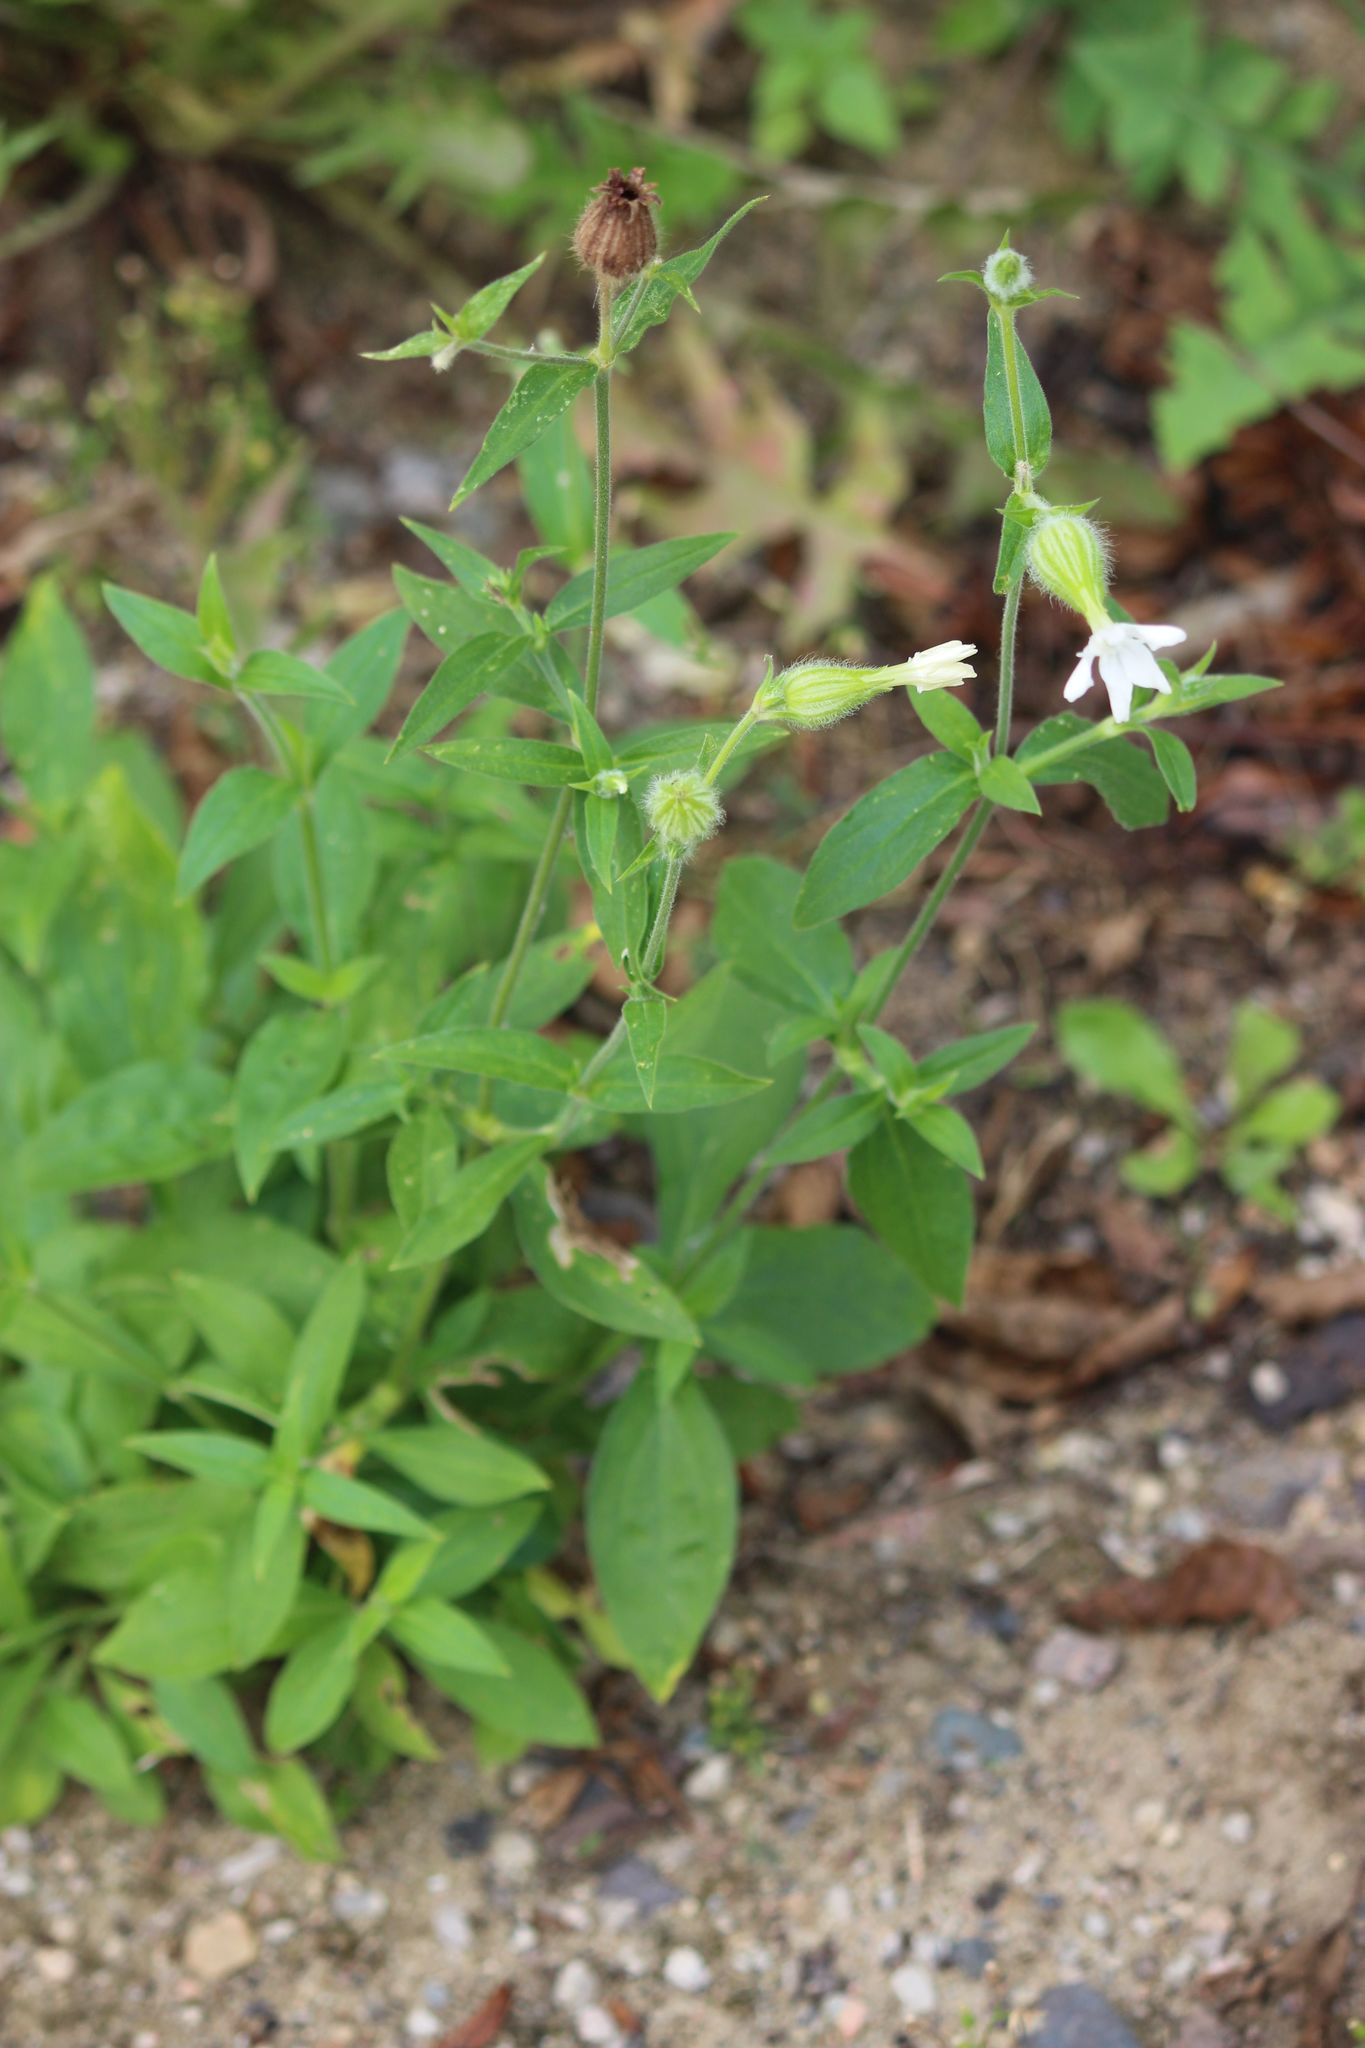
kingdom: Plantae
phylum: Tracheophyta
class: Magnoliopsida
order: Caryophyllales
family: Caryophyllaceae
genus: Silene
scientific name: Silene latifolia
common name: White campion
